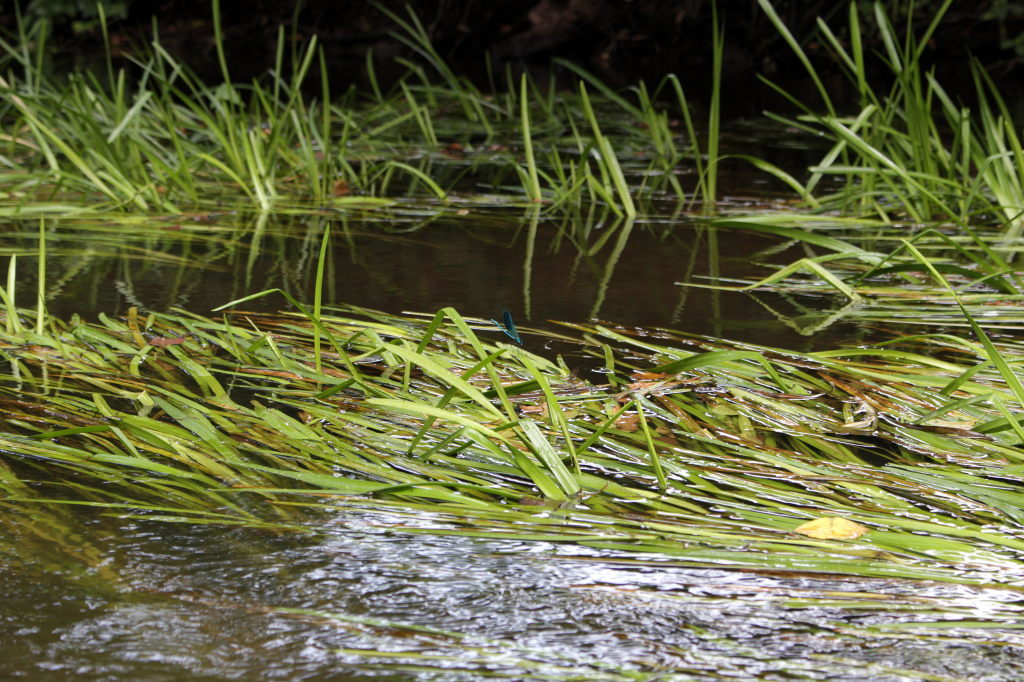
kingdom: Animalia
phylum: Arthropoda
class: Insecta
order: Odonata
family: Calopterygidae
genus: Calopteryx
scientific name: Calopteryx splendens
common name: Banded demoiselle
